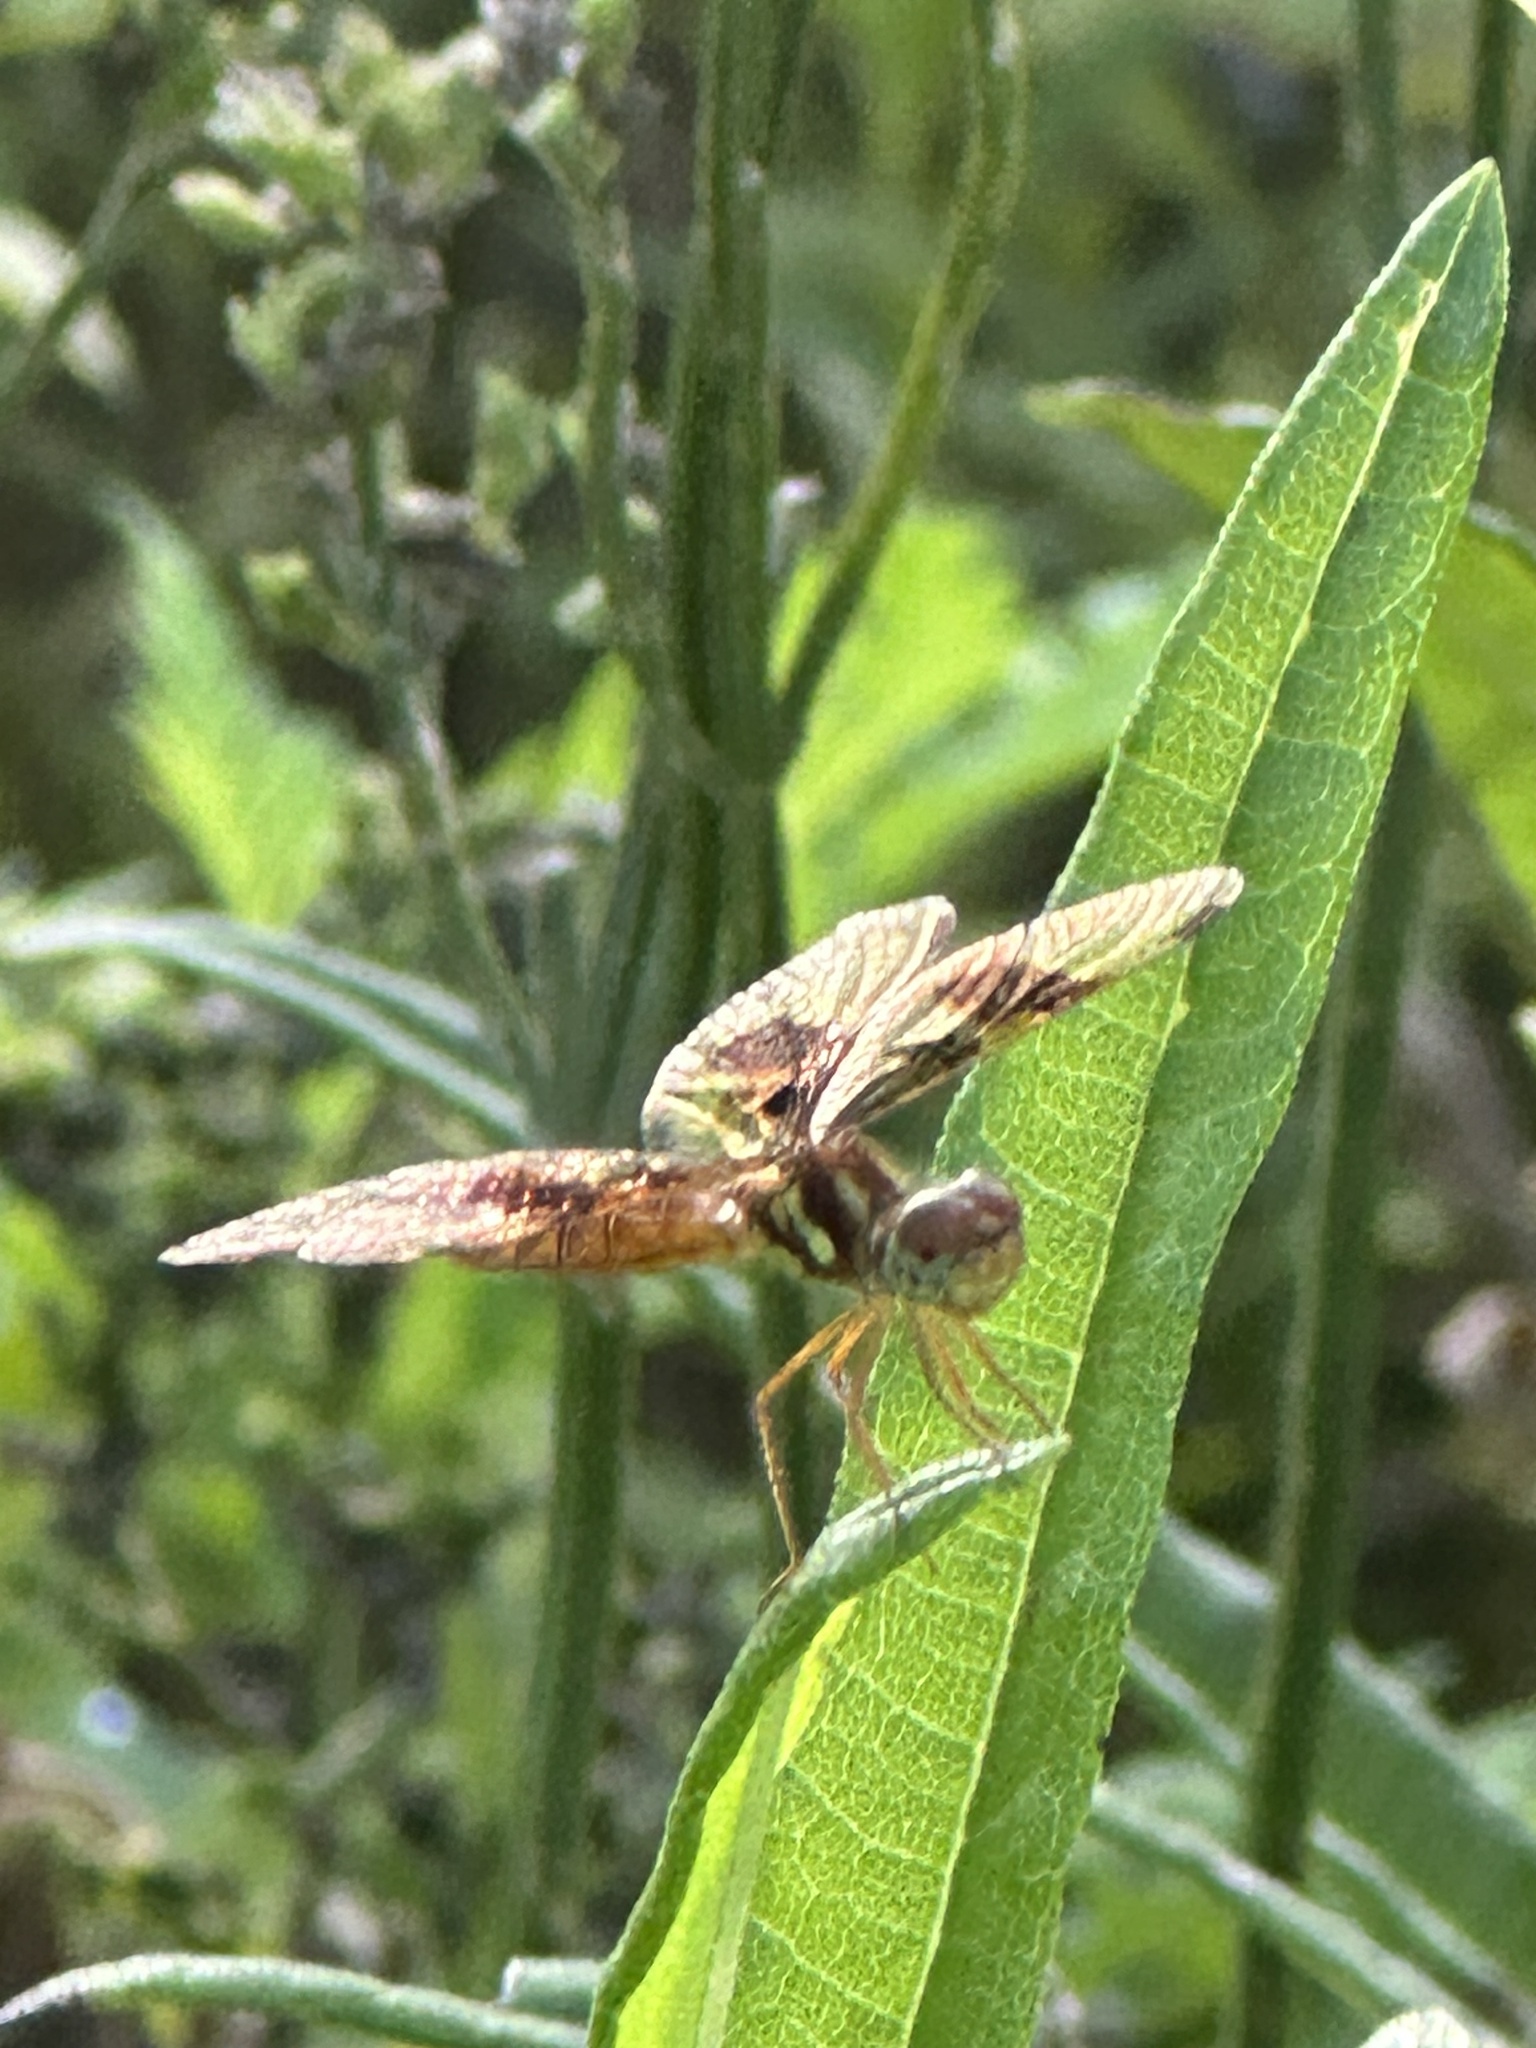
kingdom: Animalia
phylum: Arthropoda
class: Insecta
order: Odonata
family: Libellulidae
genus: Perithemis
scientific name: Perithemis tenera
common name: Eastern amberwing
